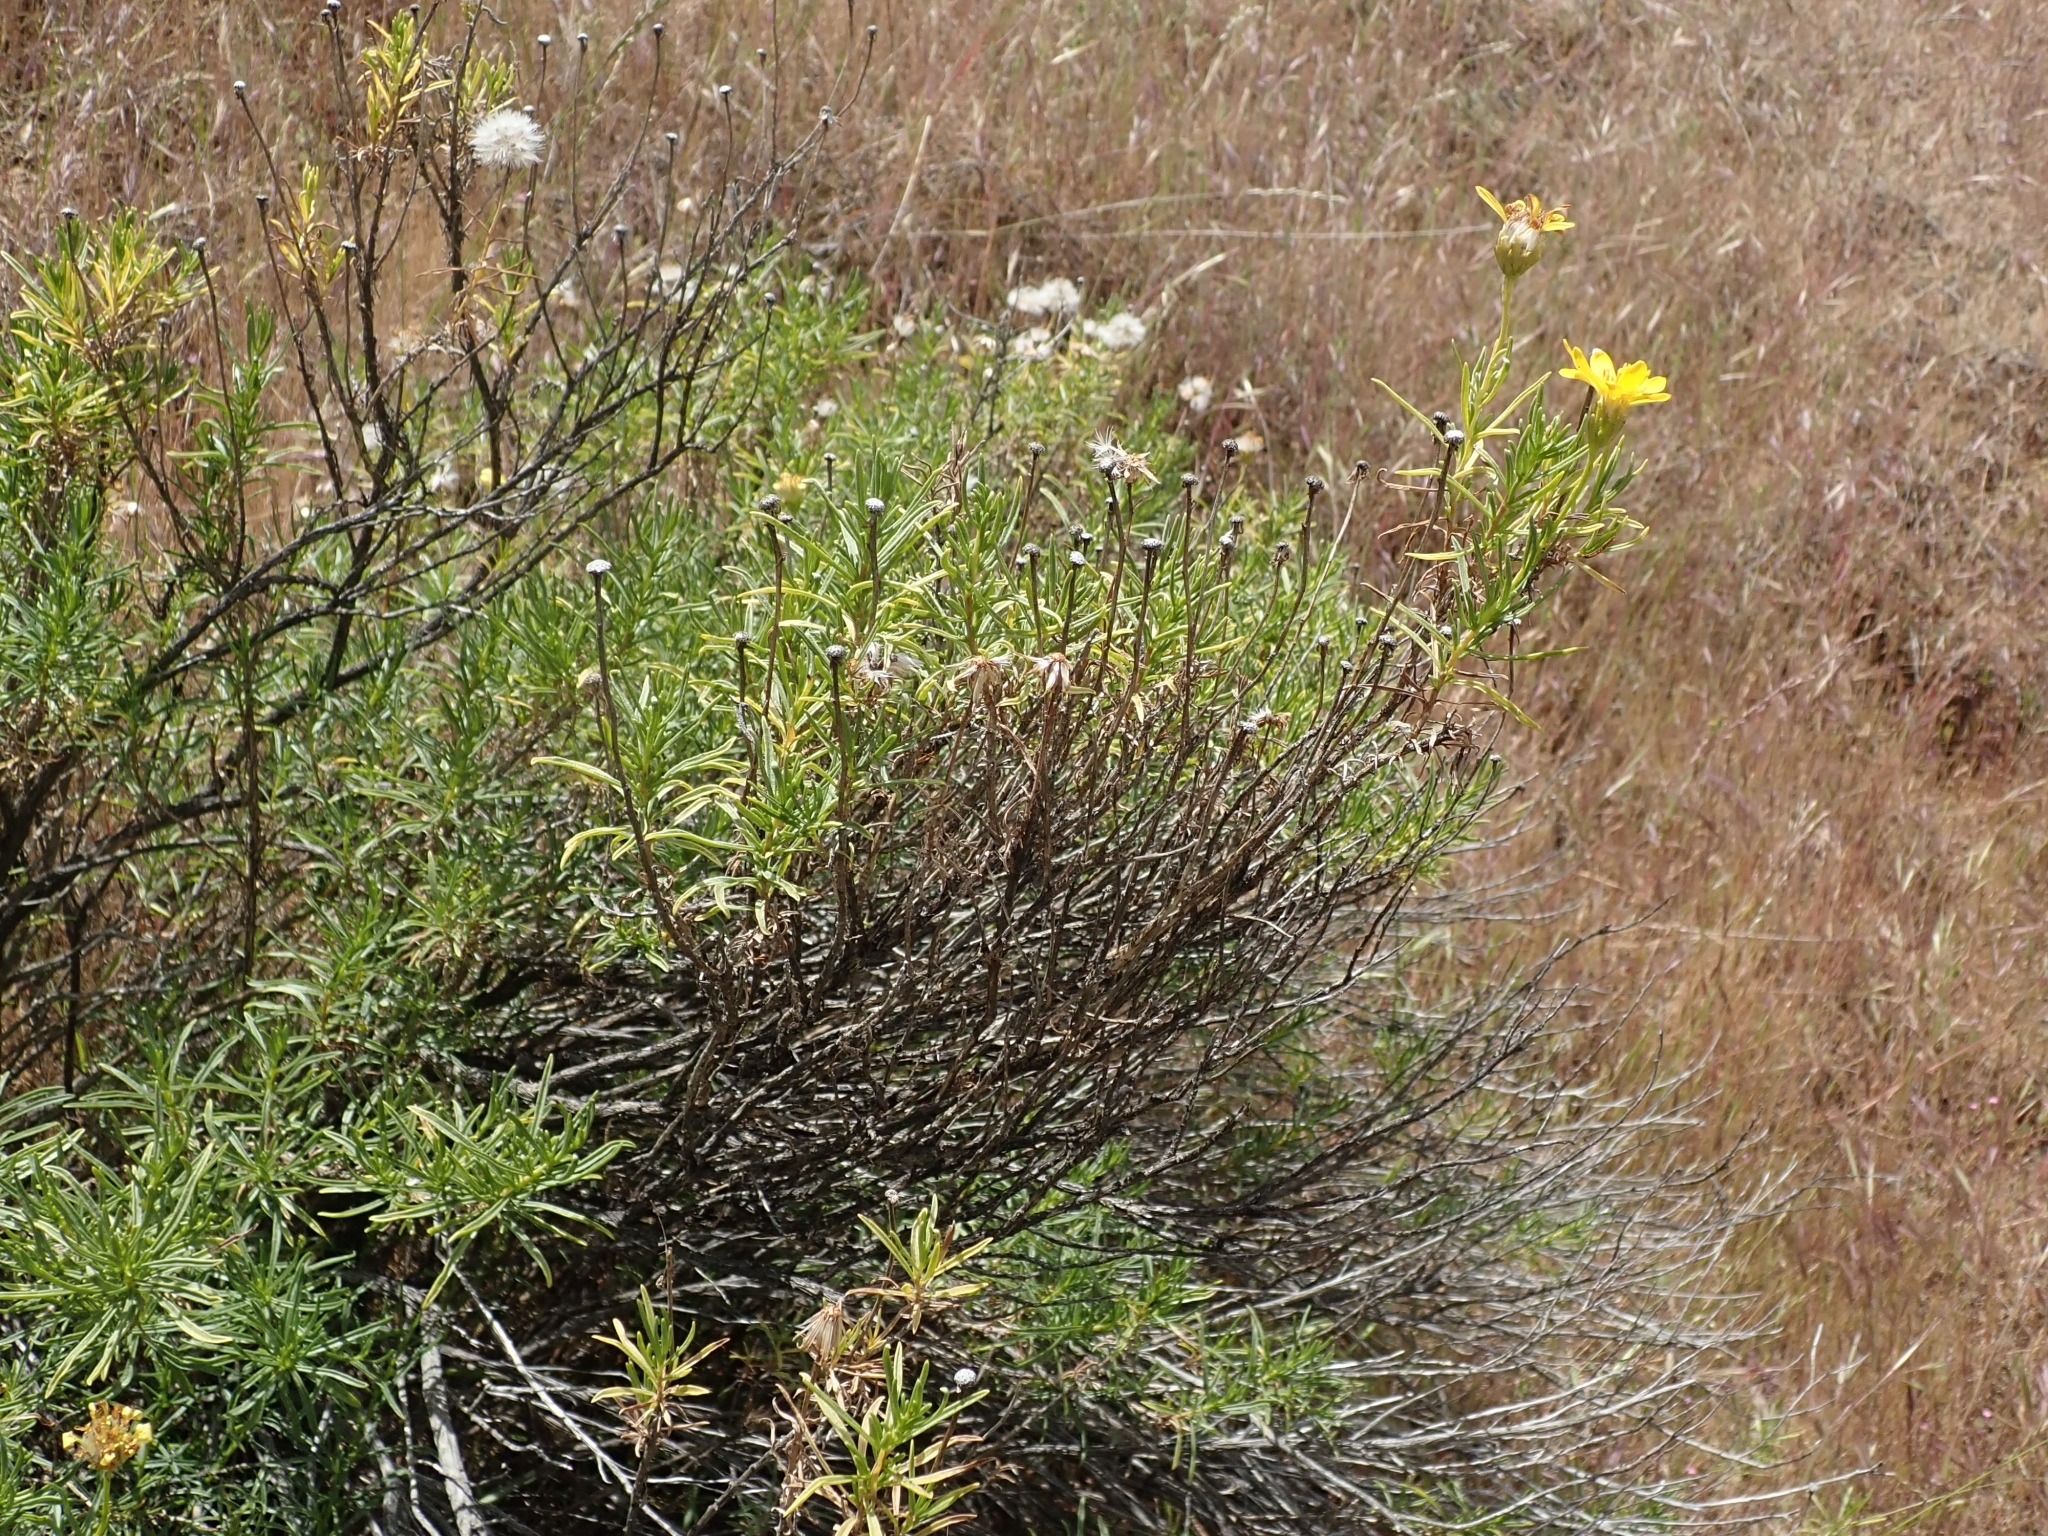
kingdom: Plantae
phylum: Tracheophyta
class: Magnoliopsida
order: Asterales
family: Asteraceae
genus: Ericameria
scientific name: Ericameria linearifolia
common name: Interior goldenbush
